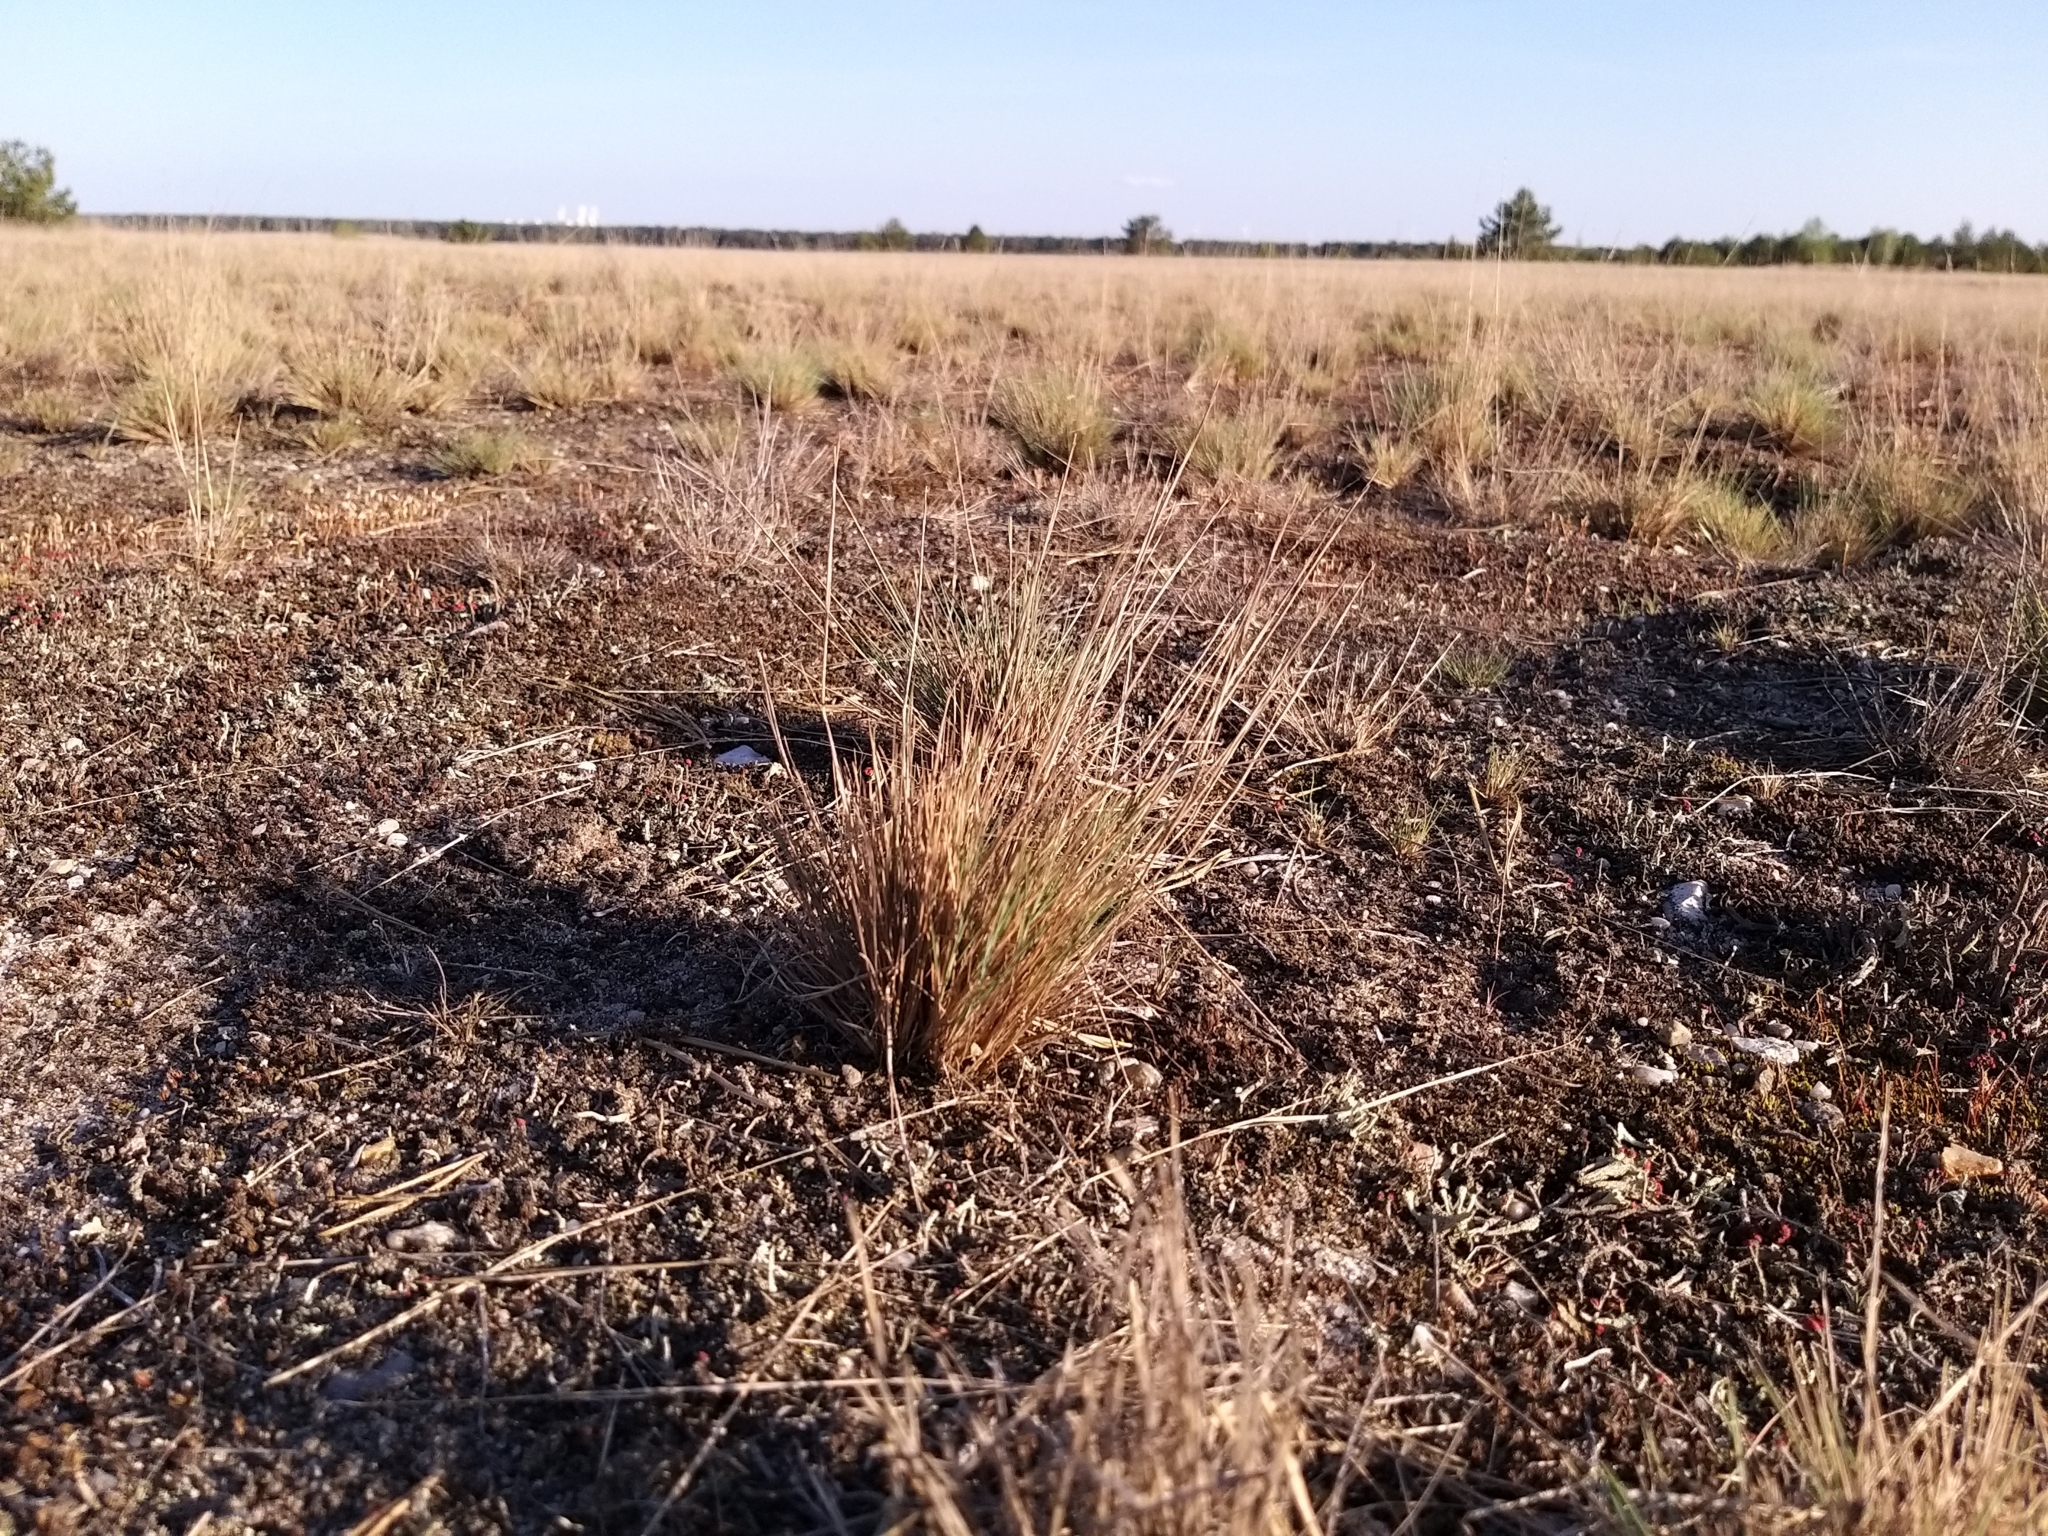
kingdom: Plantae
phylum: Tracheophyta
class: Liliopsida
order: Poales
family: Poaceae
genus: Corynephorus
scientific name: Corynephorus canescens
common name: Grey hair-grass
